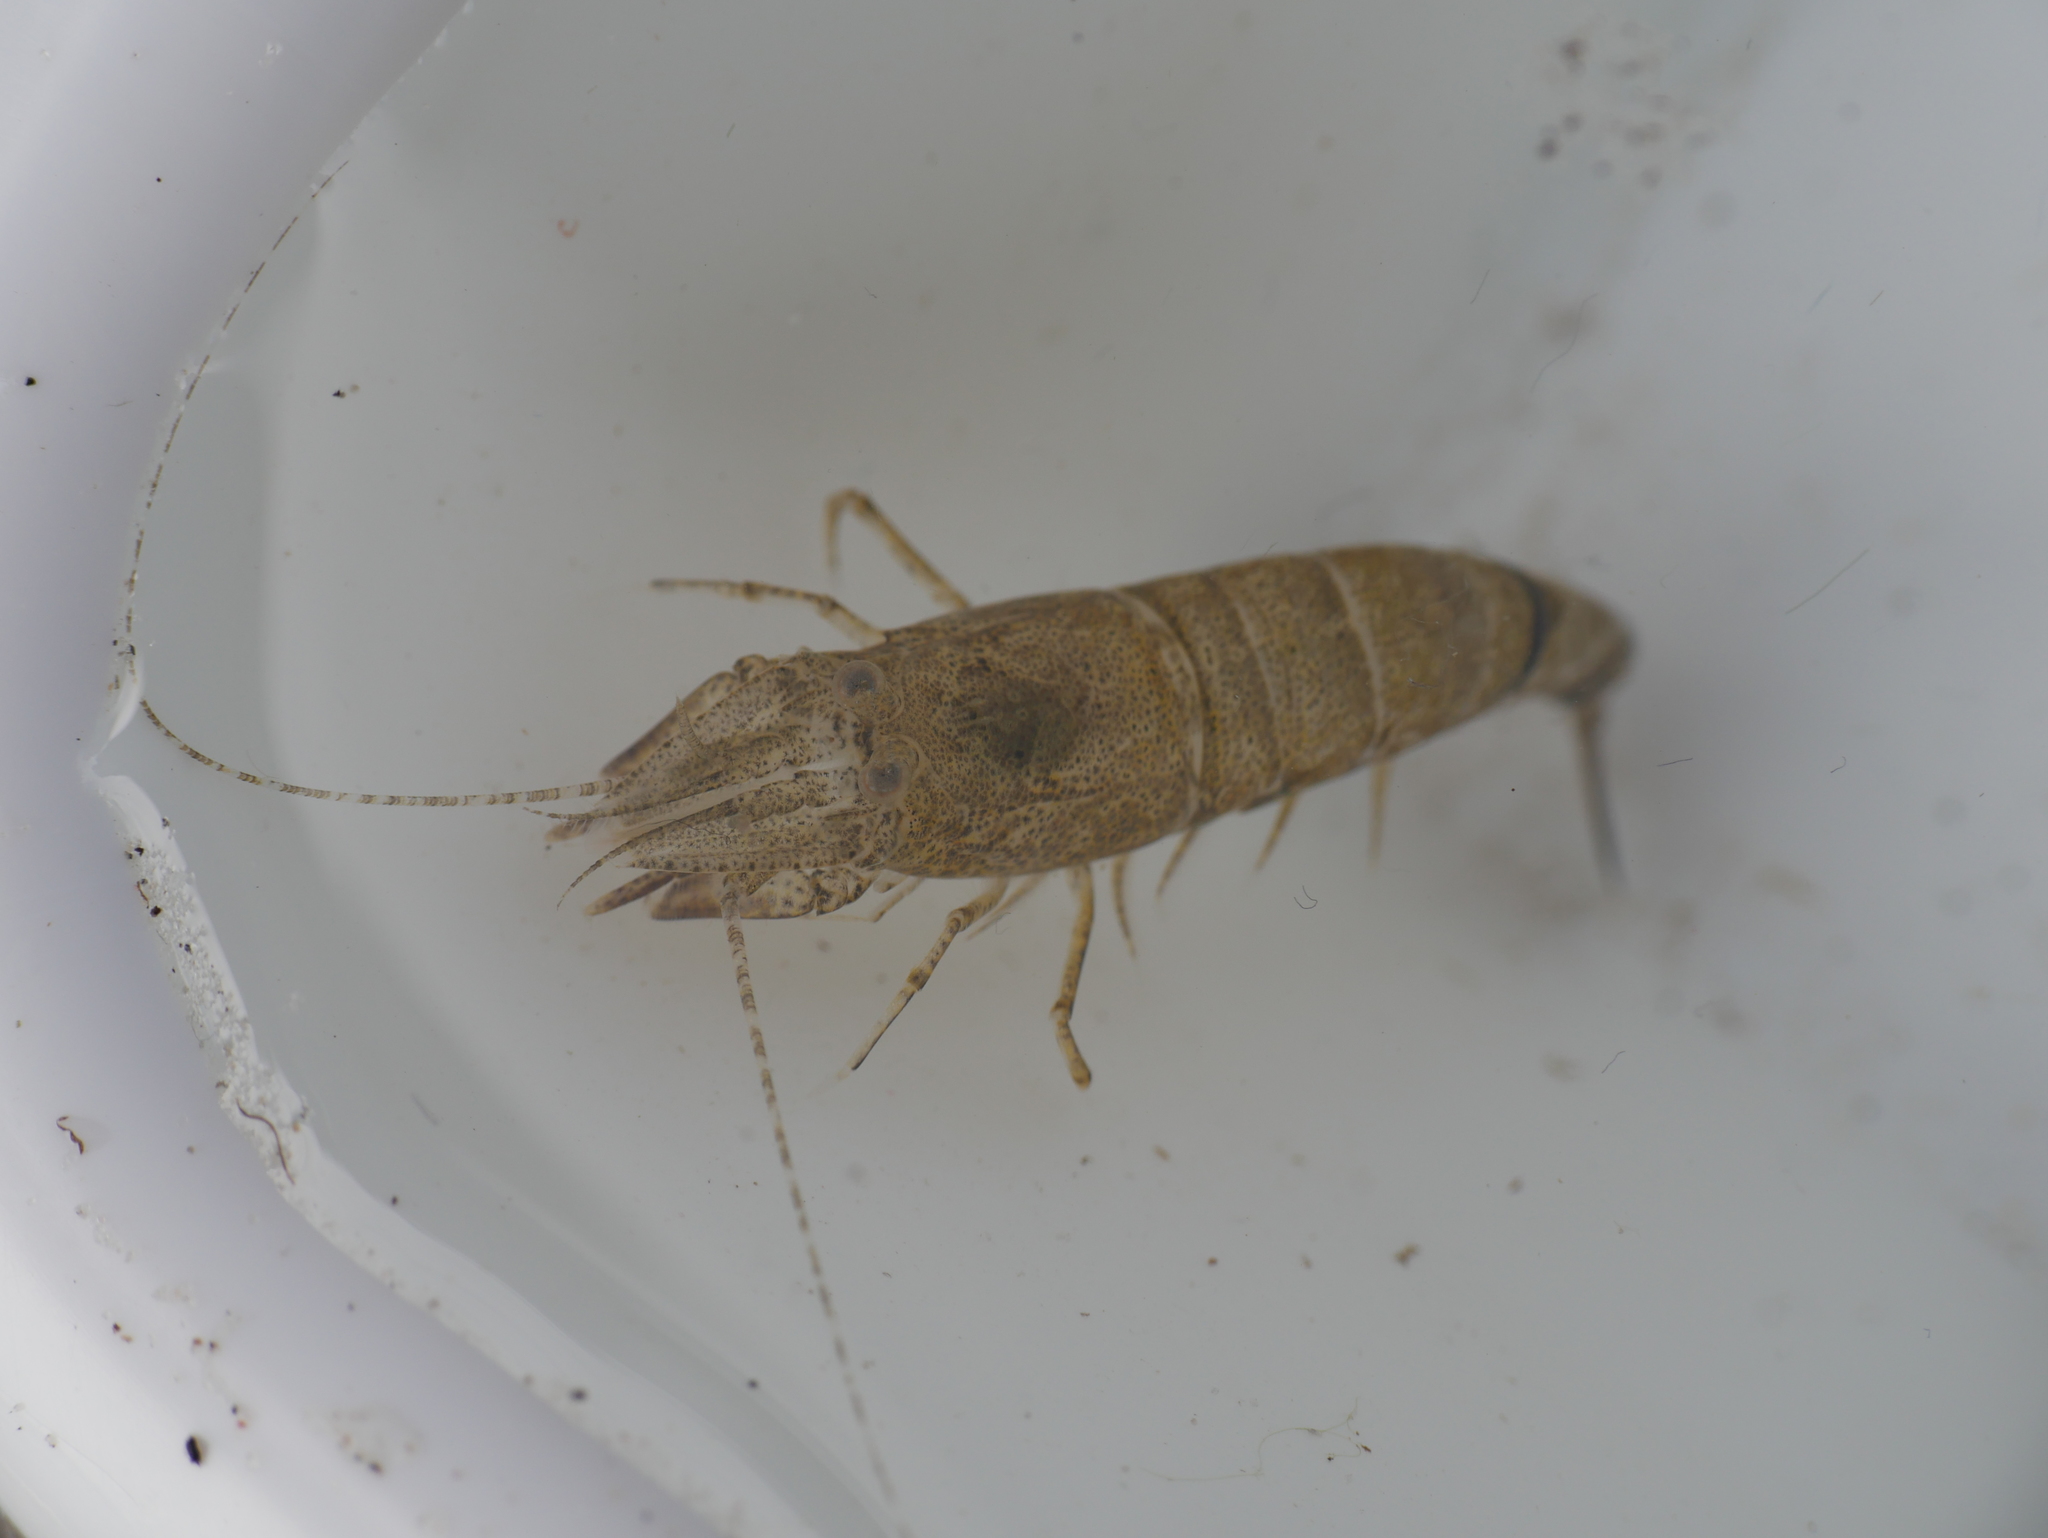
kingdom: Animalia
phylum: Arthropoda
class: Malacostraca
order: Decapoda
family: Crangonidae
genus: Crangon
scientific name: Crangon crangon
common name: Brown shrimp
